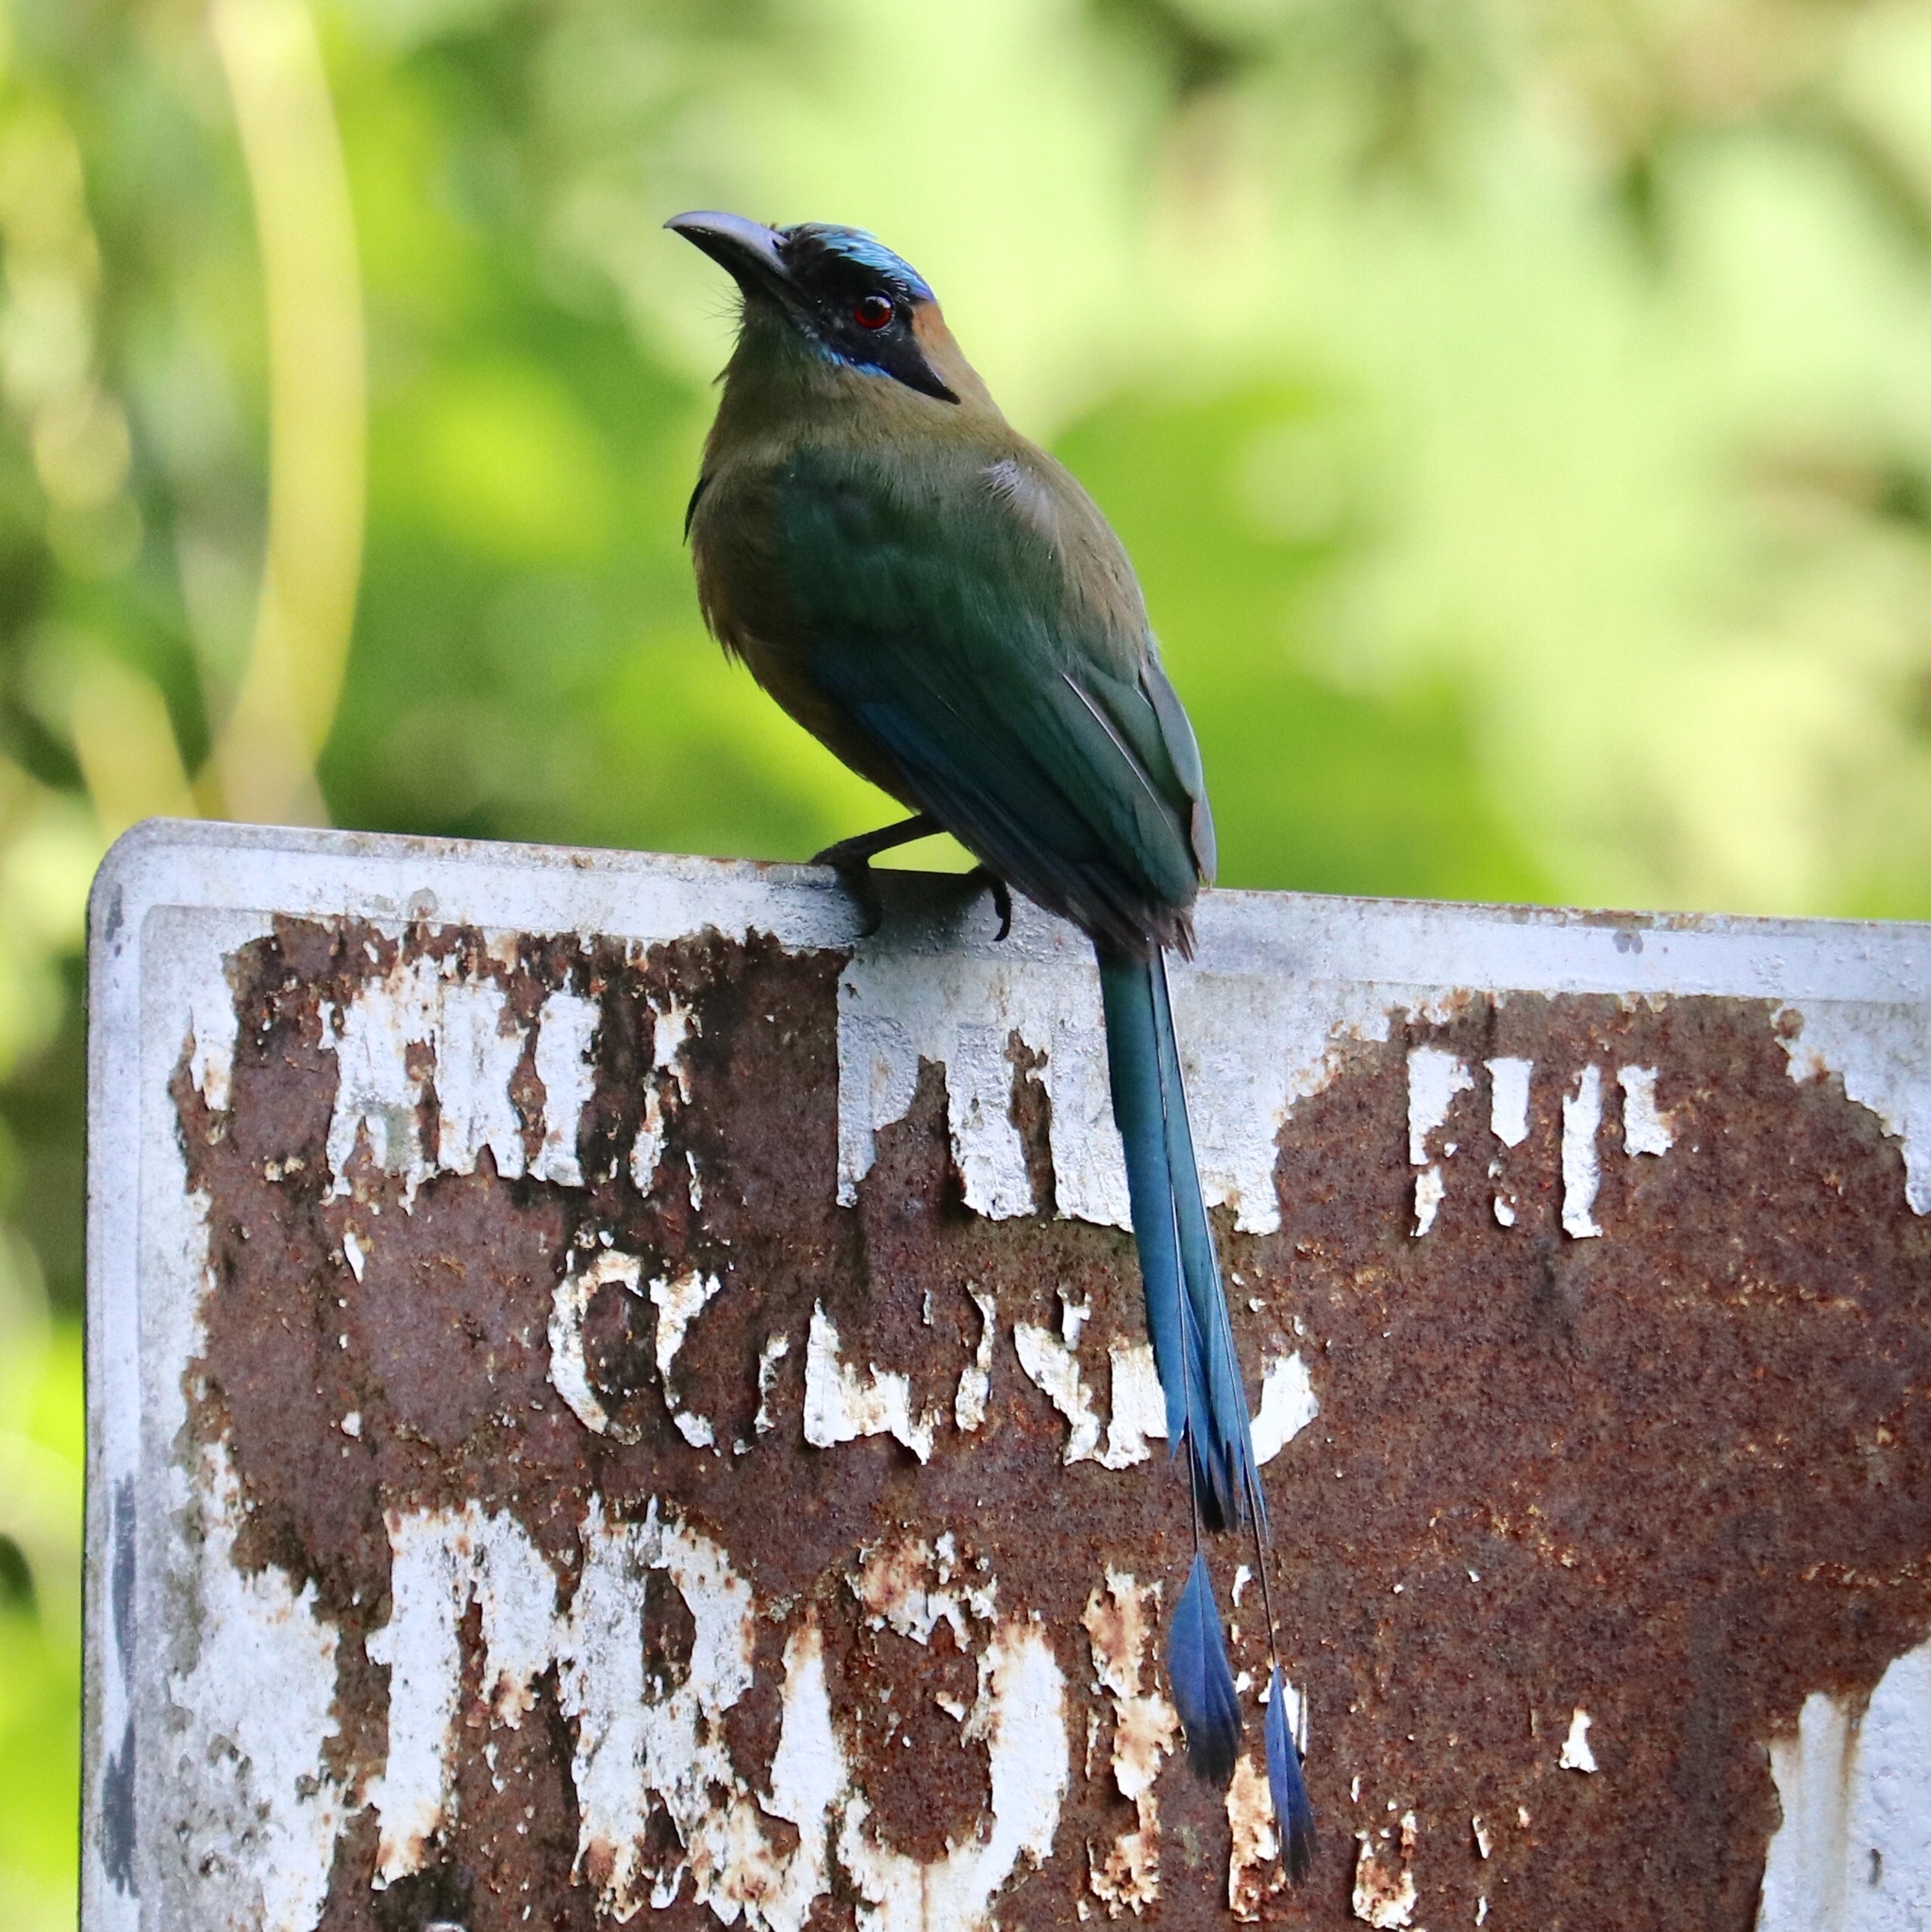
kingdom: Animalia
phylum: Chordata
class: Aves
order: Coraciiformes
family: Momotidae
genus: Momotus
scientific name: Momotus subrufescens
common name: Whooping motmot
